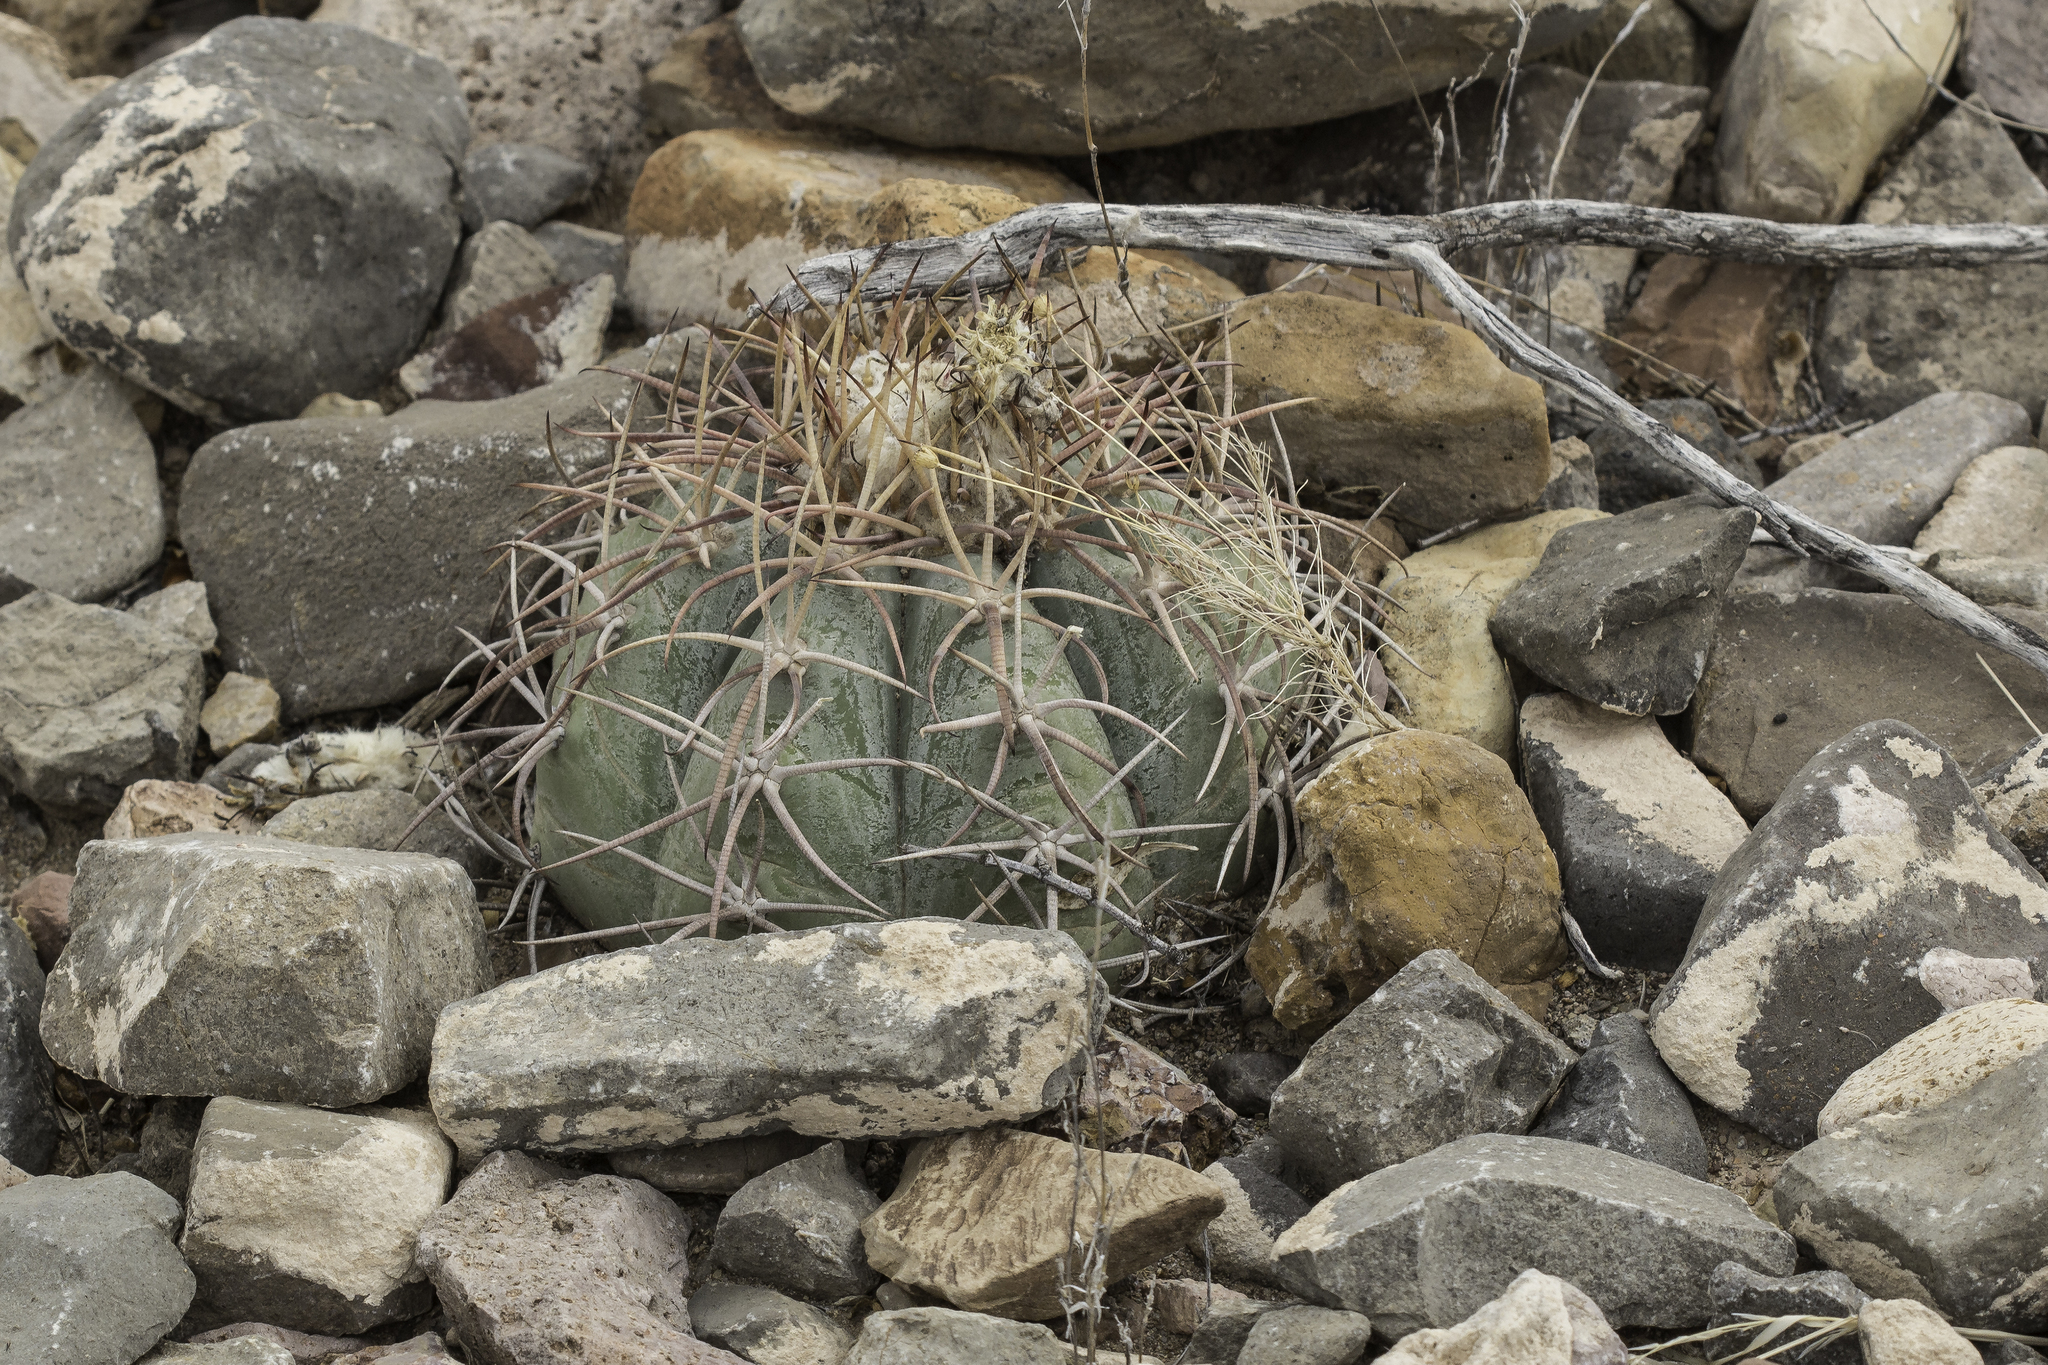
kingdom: Plantae
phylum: Tracheophyta
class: Magnoliopsida
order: Caryophyllales
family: Cactaceae
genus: Echinocactus
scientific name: Echinocactus horizonthalonius
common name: Devilshead
